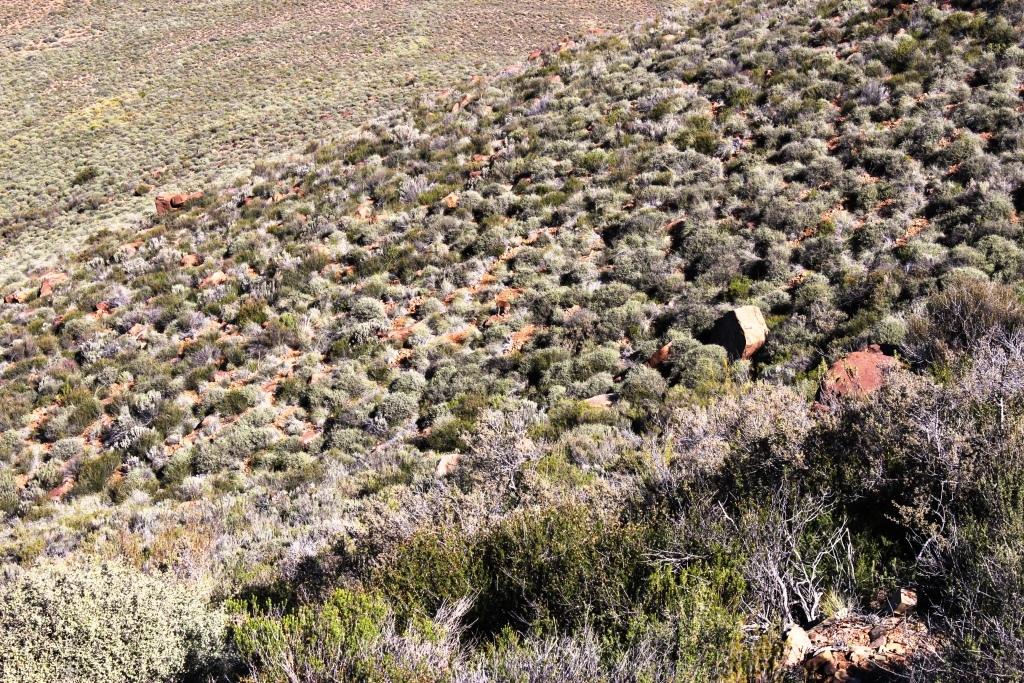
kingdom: Animalia
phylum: Chordata
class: Mammalia
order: Artiodactyla
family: Bovidae
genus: Oreotragus
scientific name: Oreotragus oreotragus
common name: Klipspringer
